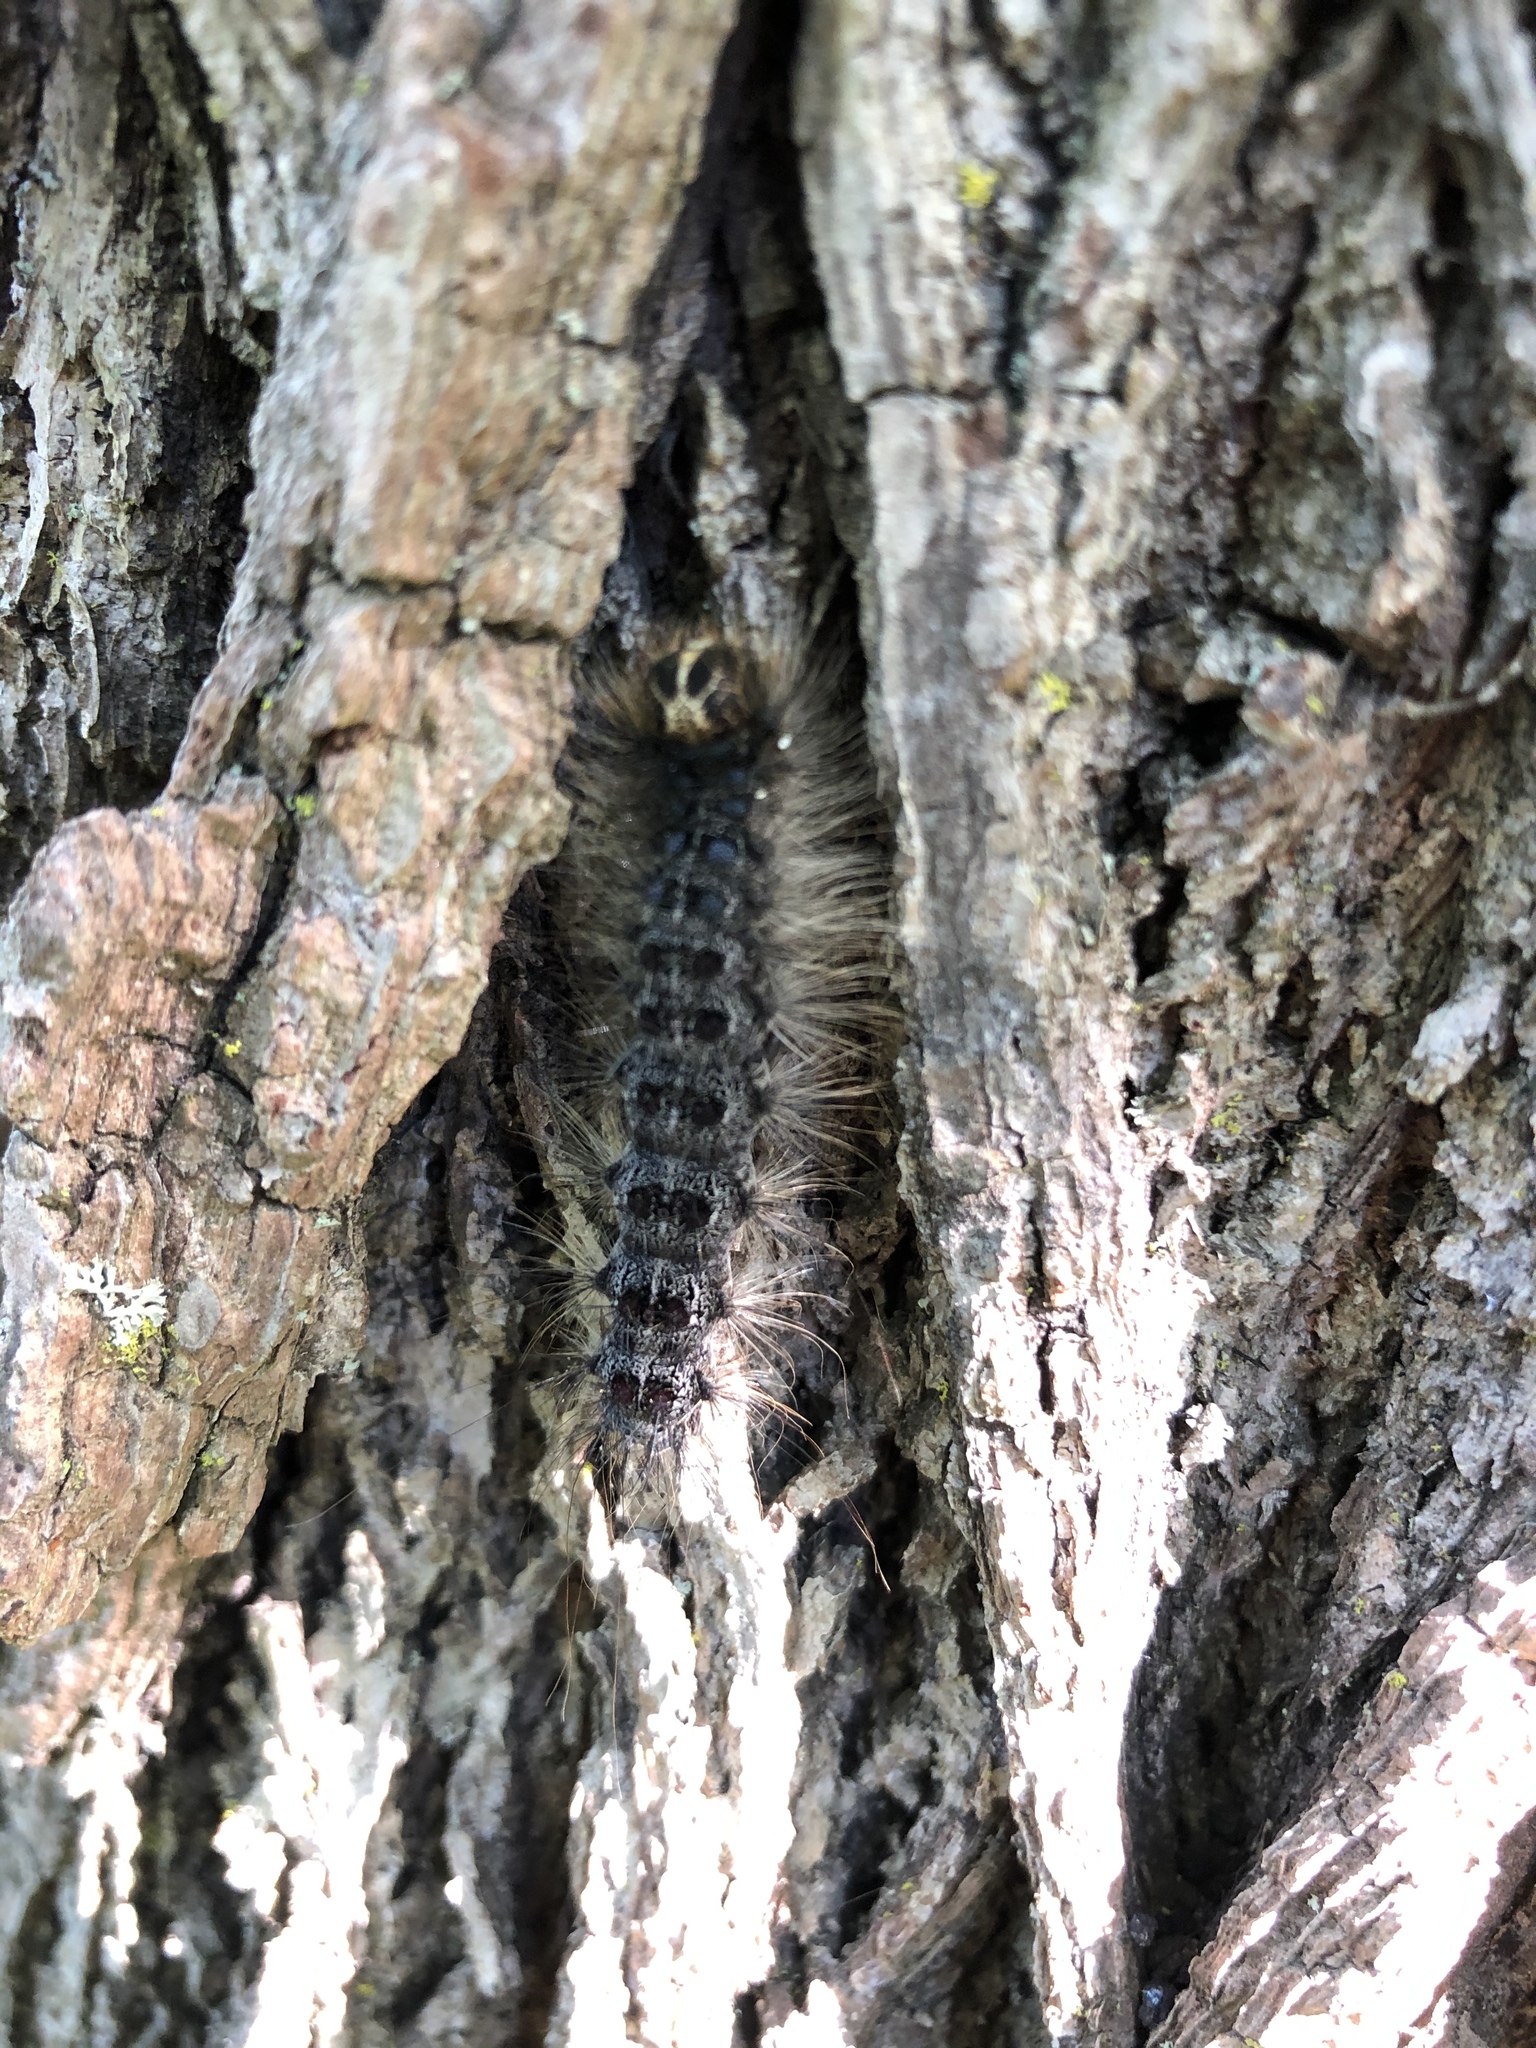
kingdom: Animalia
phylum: Arthropoda
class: Insecta
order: Lepidoptera
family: Erebidae
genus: Lymantria
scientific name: Lymantria dispar
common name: Gypsy moth
